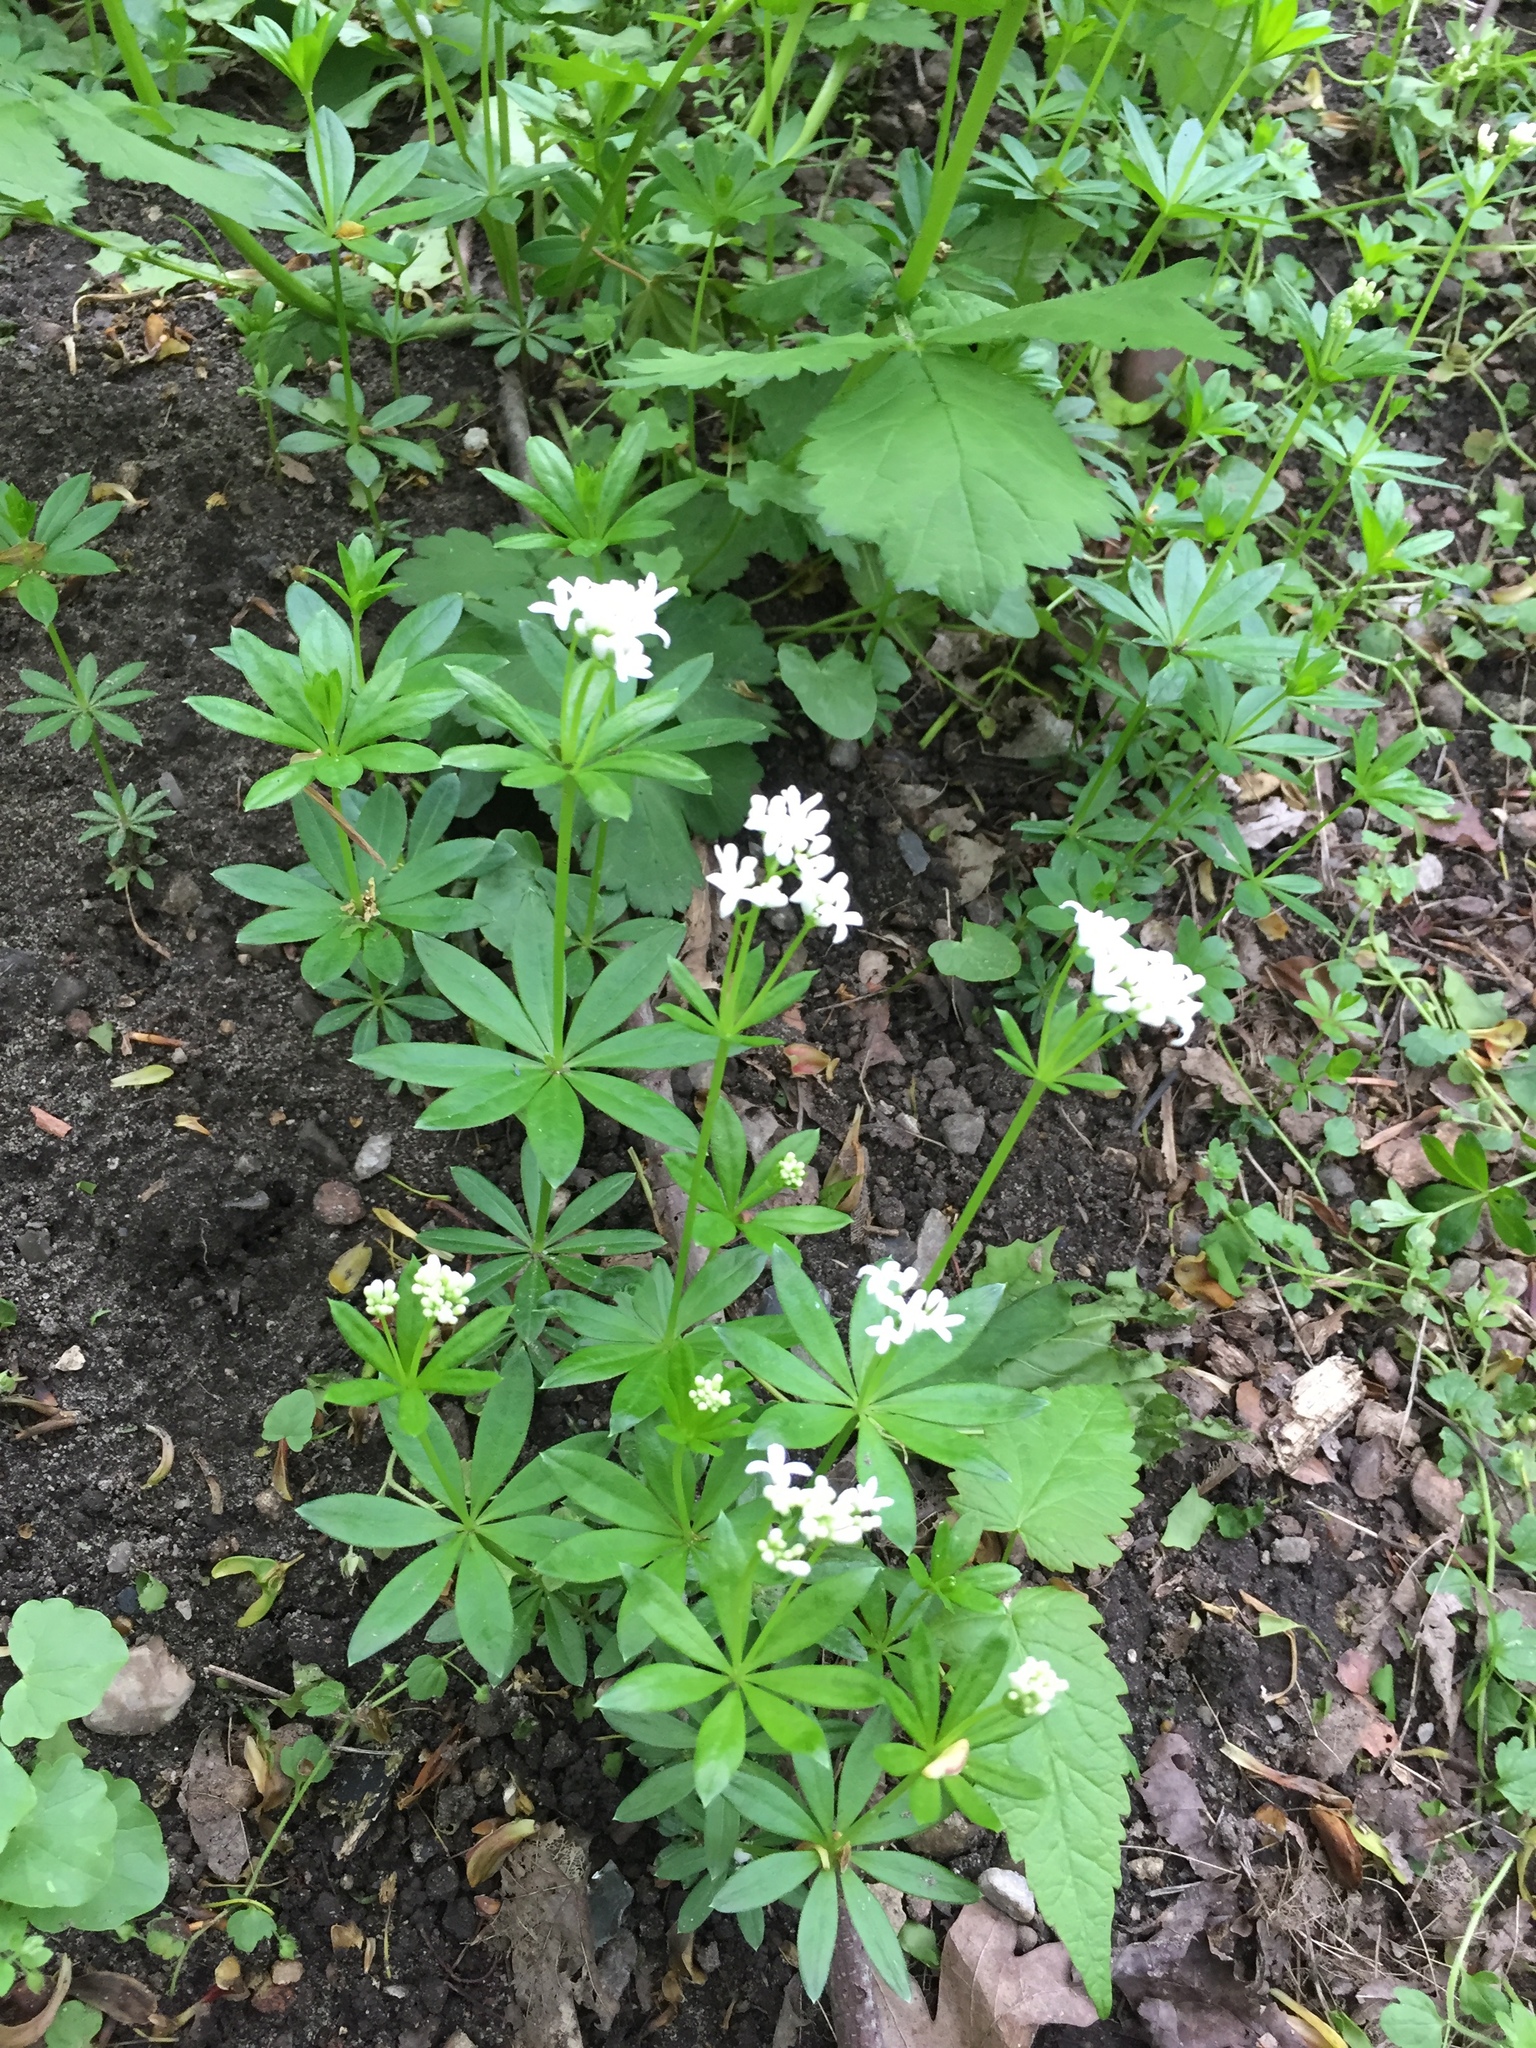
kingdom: Plantae
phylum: Tracheophyta
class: Magnoliopsida
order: Gentianales
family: Rubiaceae
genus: Galium
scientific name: Galium odoratum
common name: Sweet woodruff
